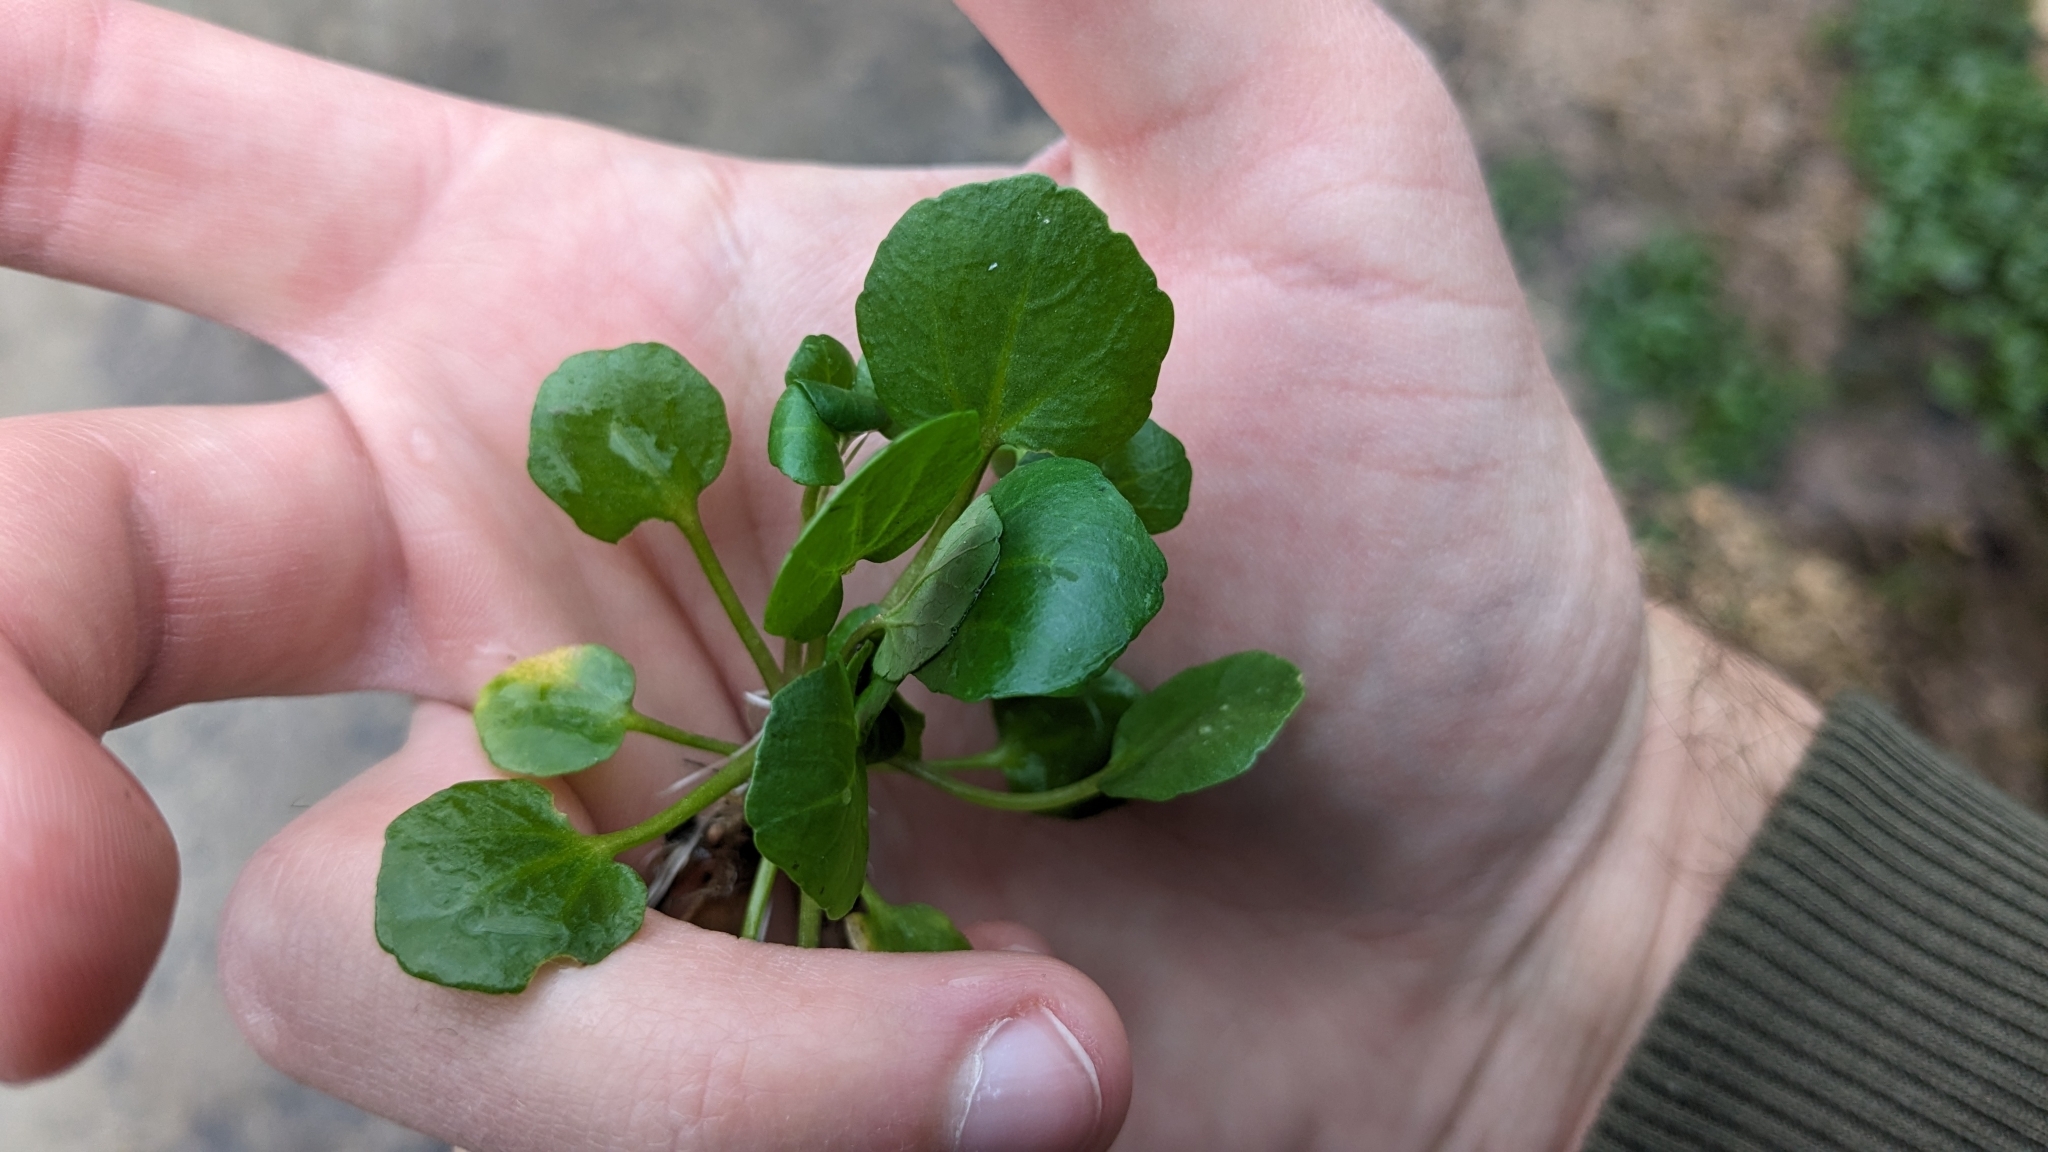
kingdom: Plantae
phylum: Tracheophyta
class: Magnoliopsida
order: Brassicales
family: Brassicaceae
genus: Nasturtium
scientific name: Nasturtium officinale
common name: Watercress
